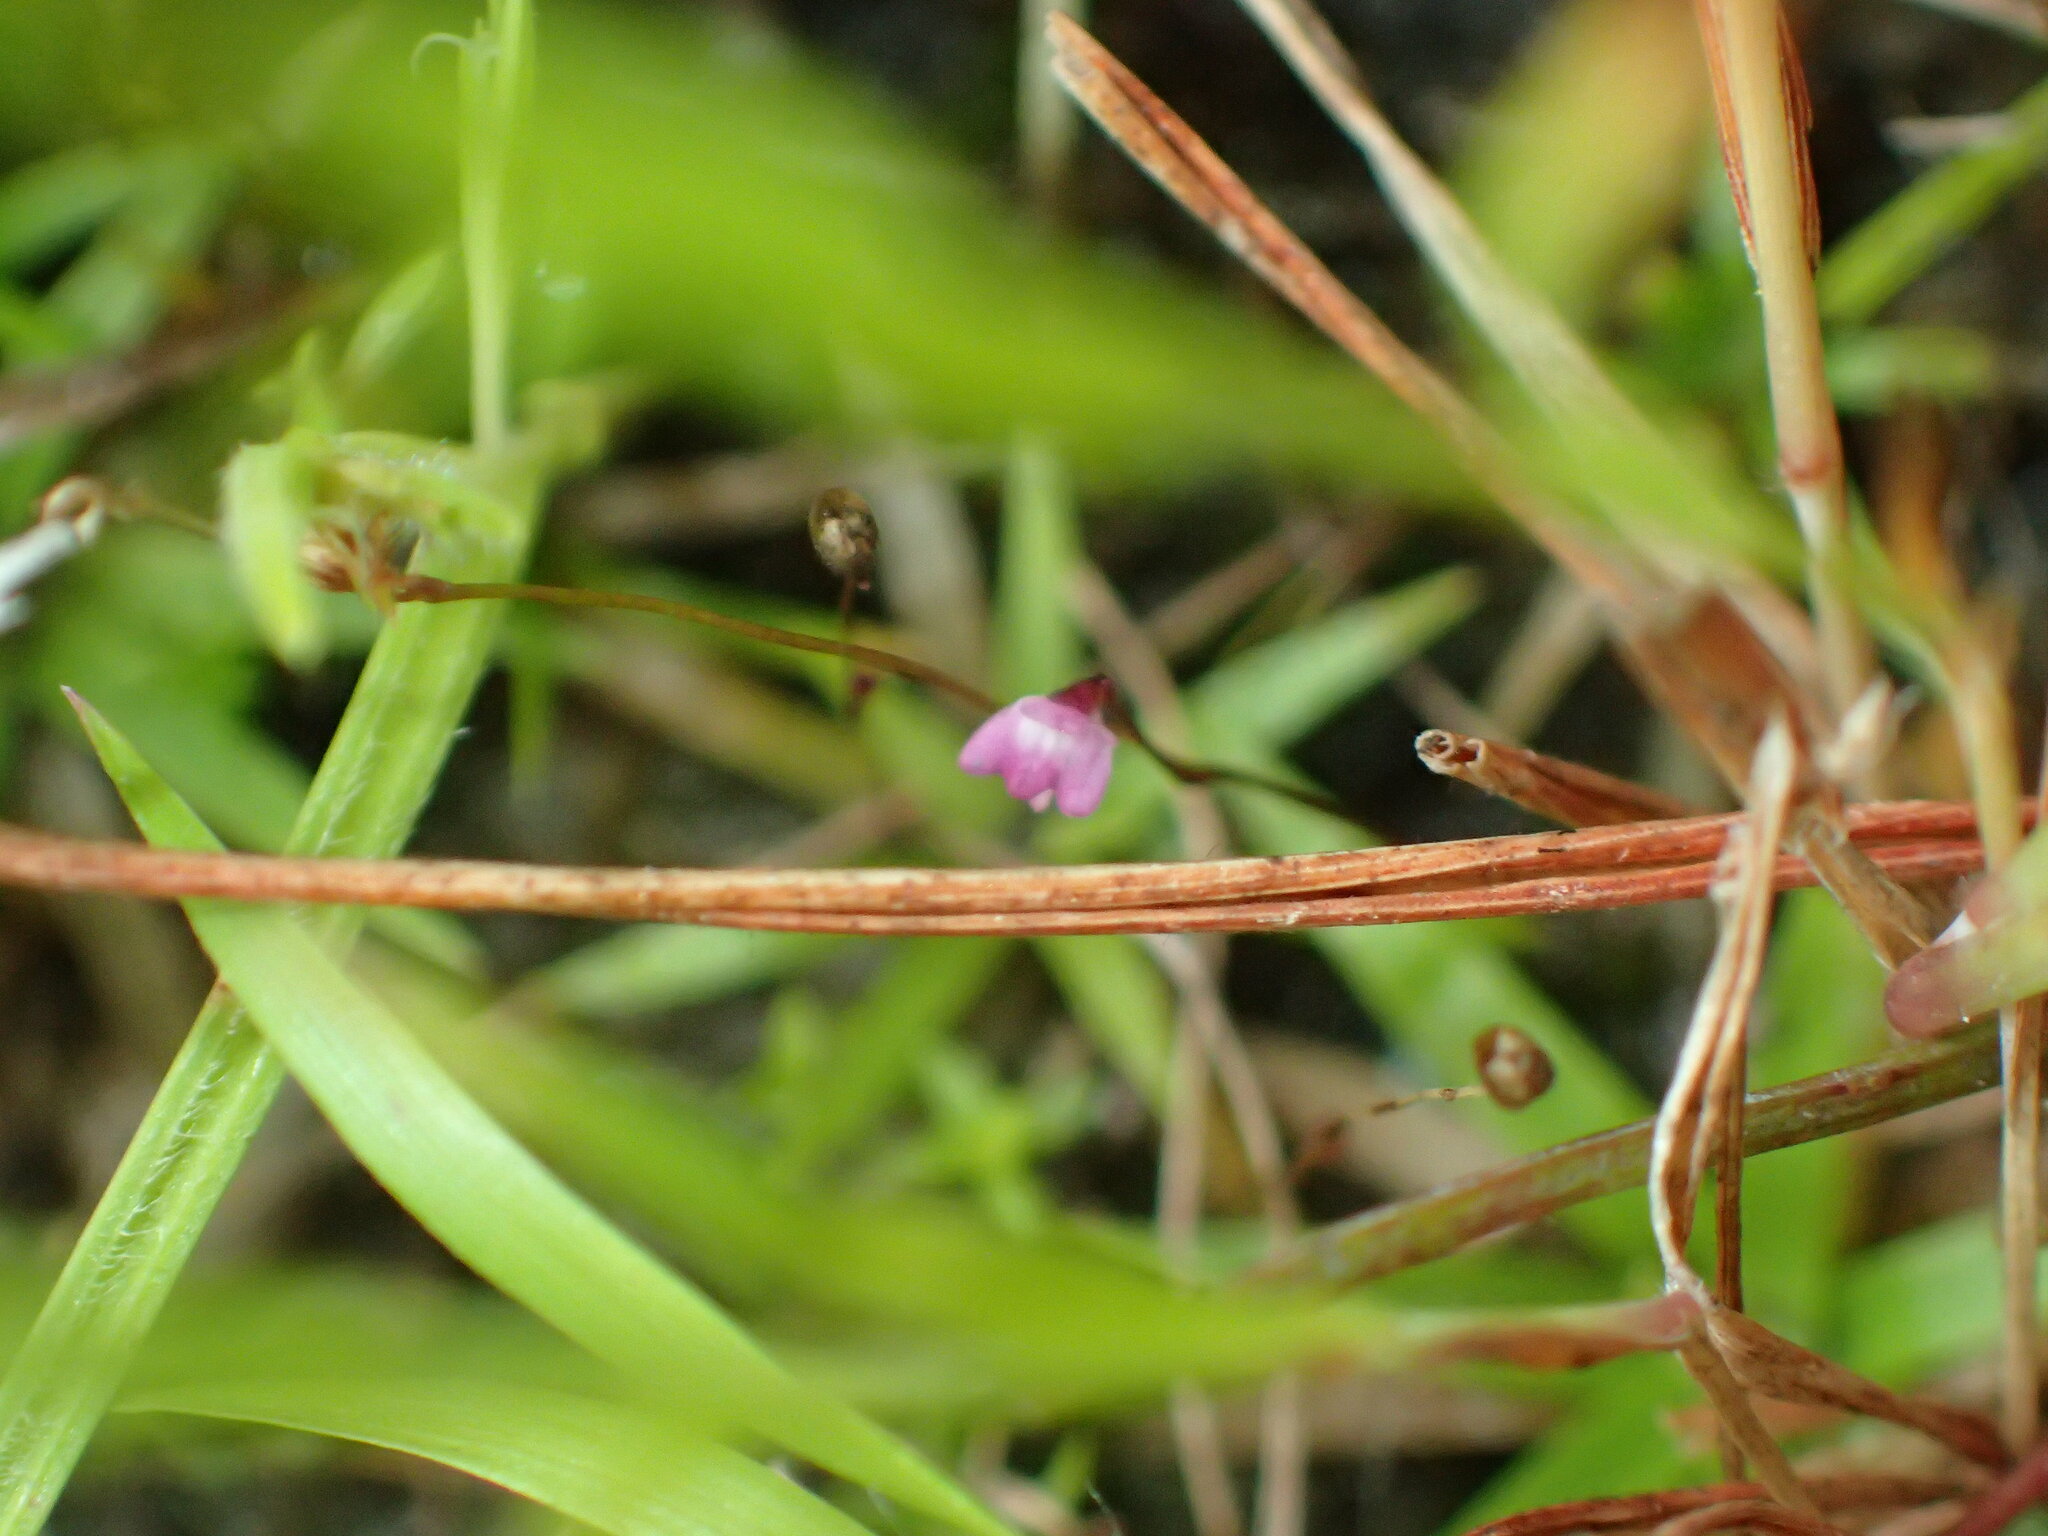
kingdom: Plantae
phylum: Tracheophyta
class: Magnoliopsida
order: Lamiales
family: Lentibulariaceae
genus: Utricularia
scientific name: Utricularia minutissima
